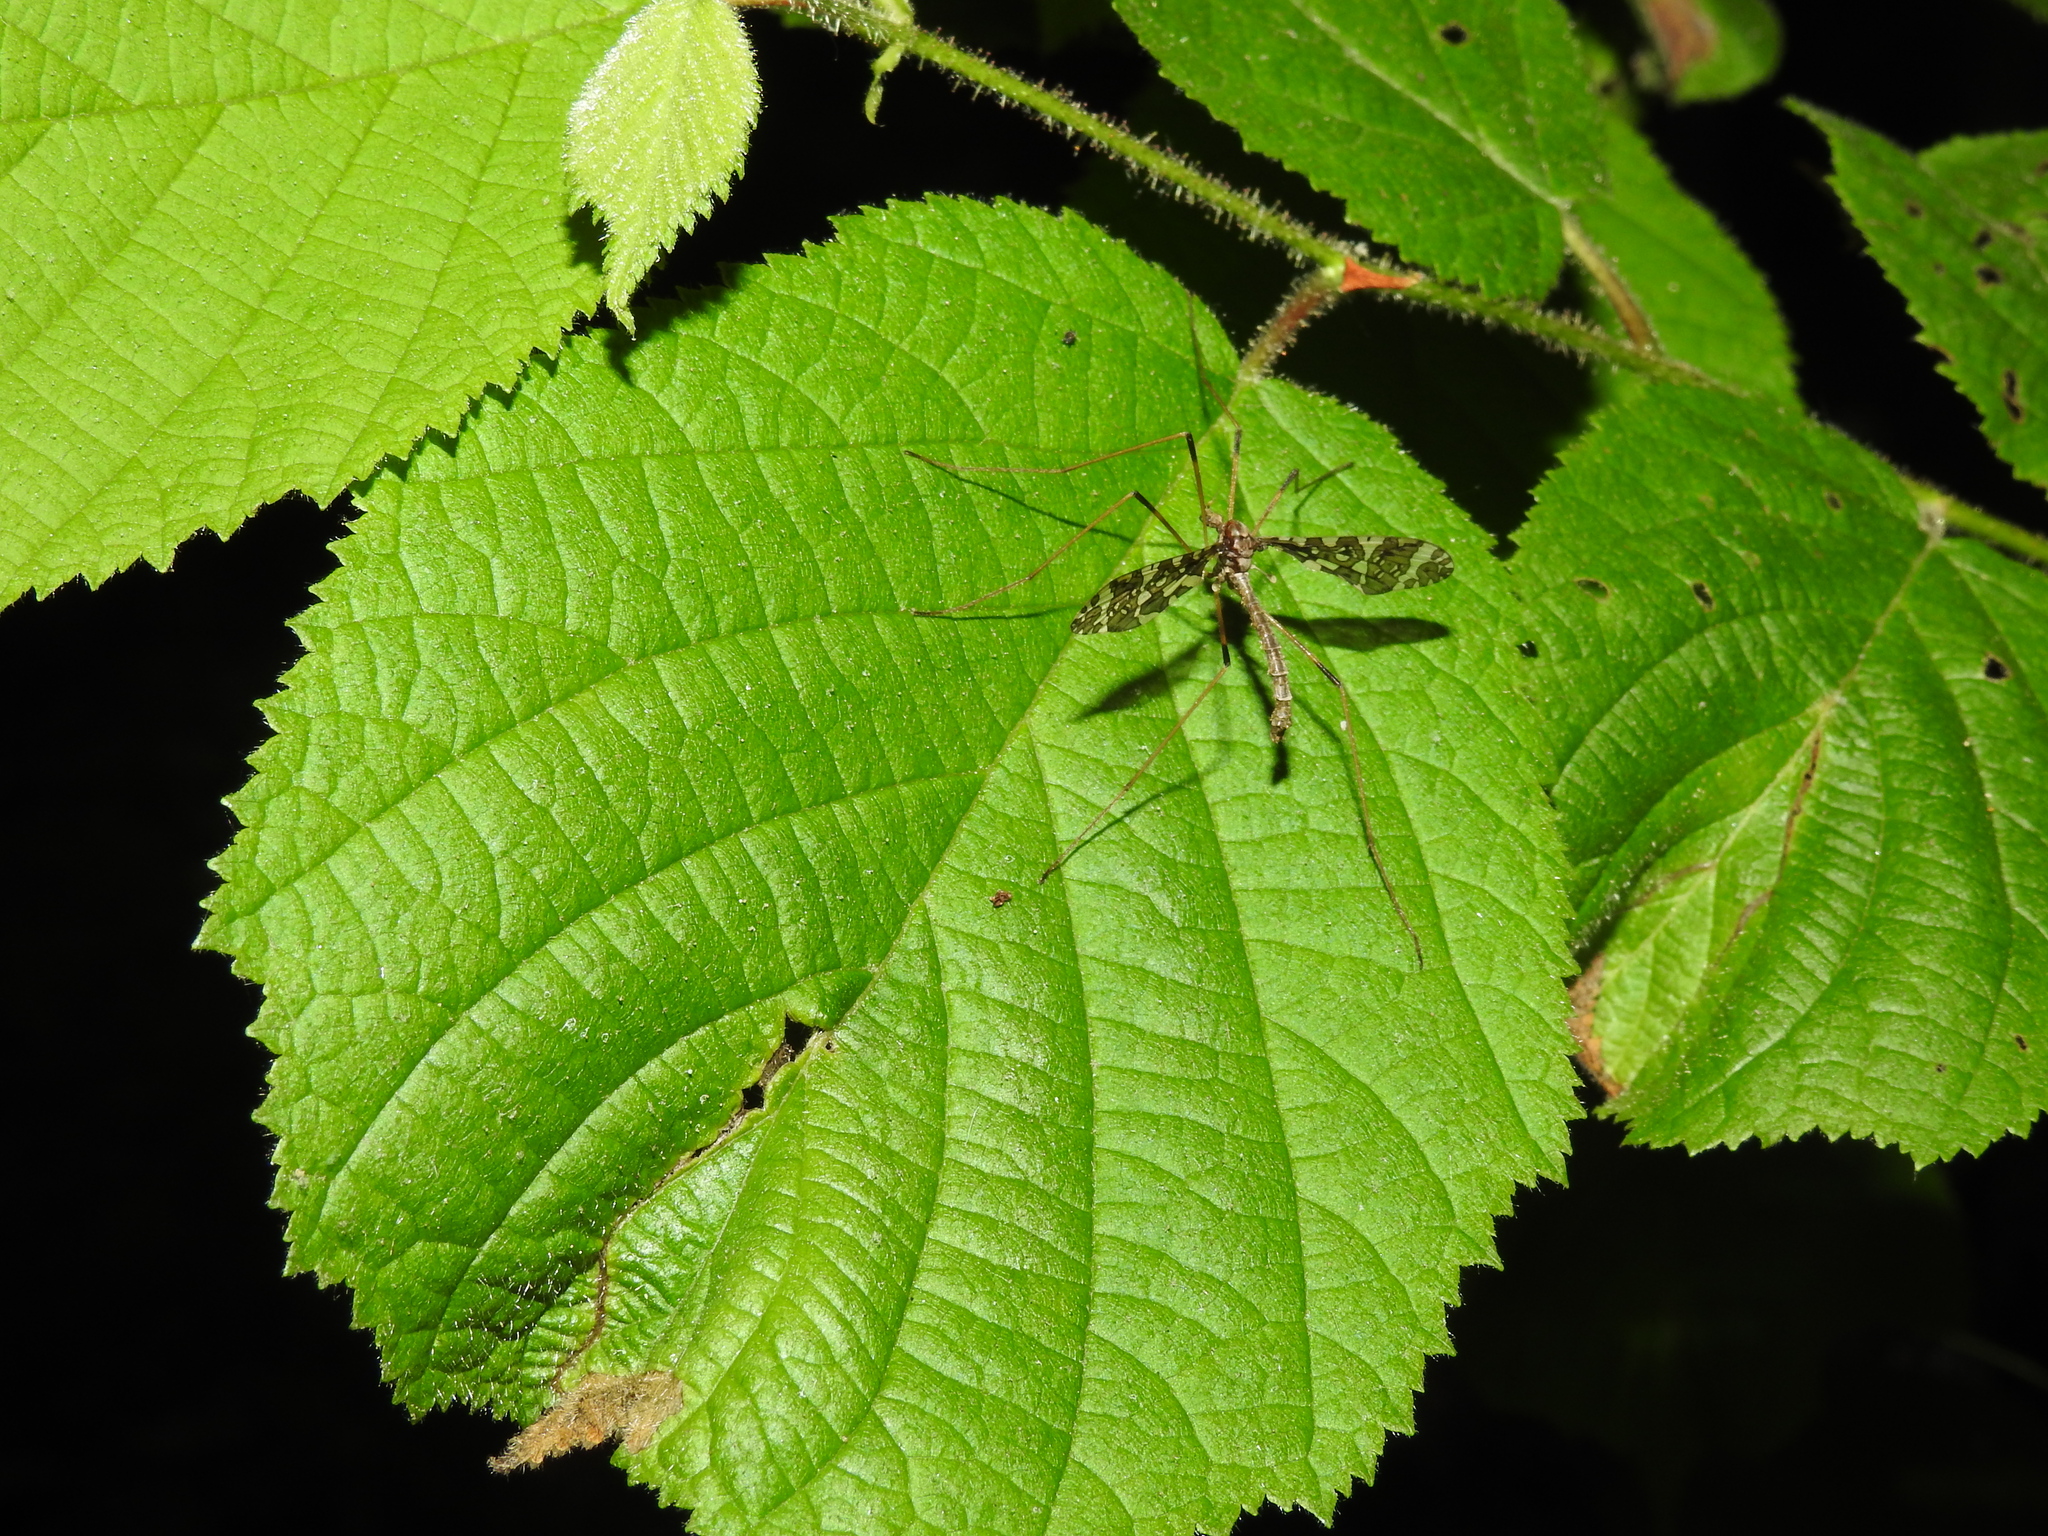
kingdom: Animalia
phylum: Arthropoda
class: Insecta
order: Diptera
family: Limoniidae
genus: Epiphragma
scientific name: Epiphragma fasciapenne
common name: Band-winged crane fly
